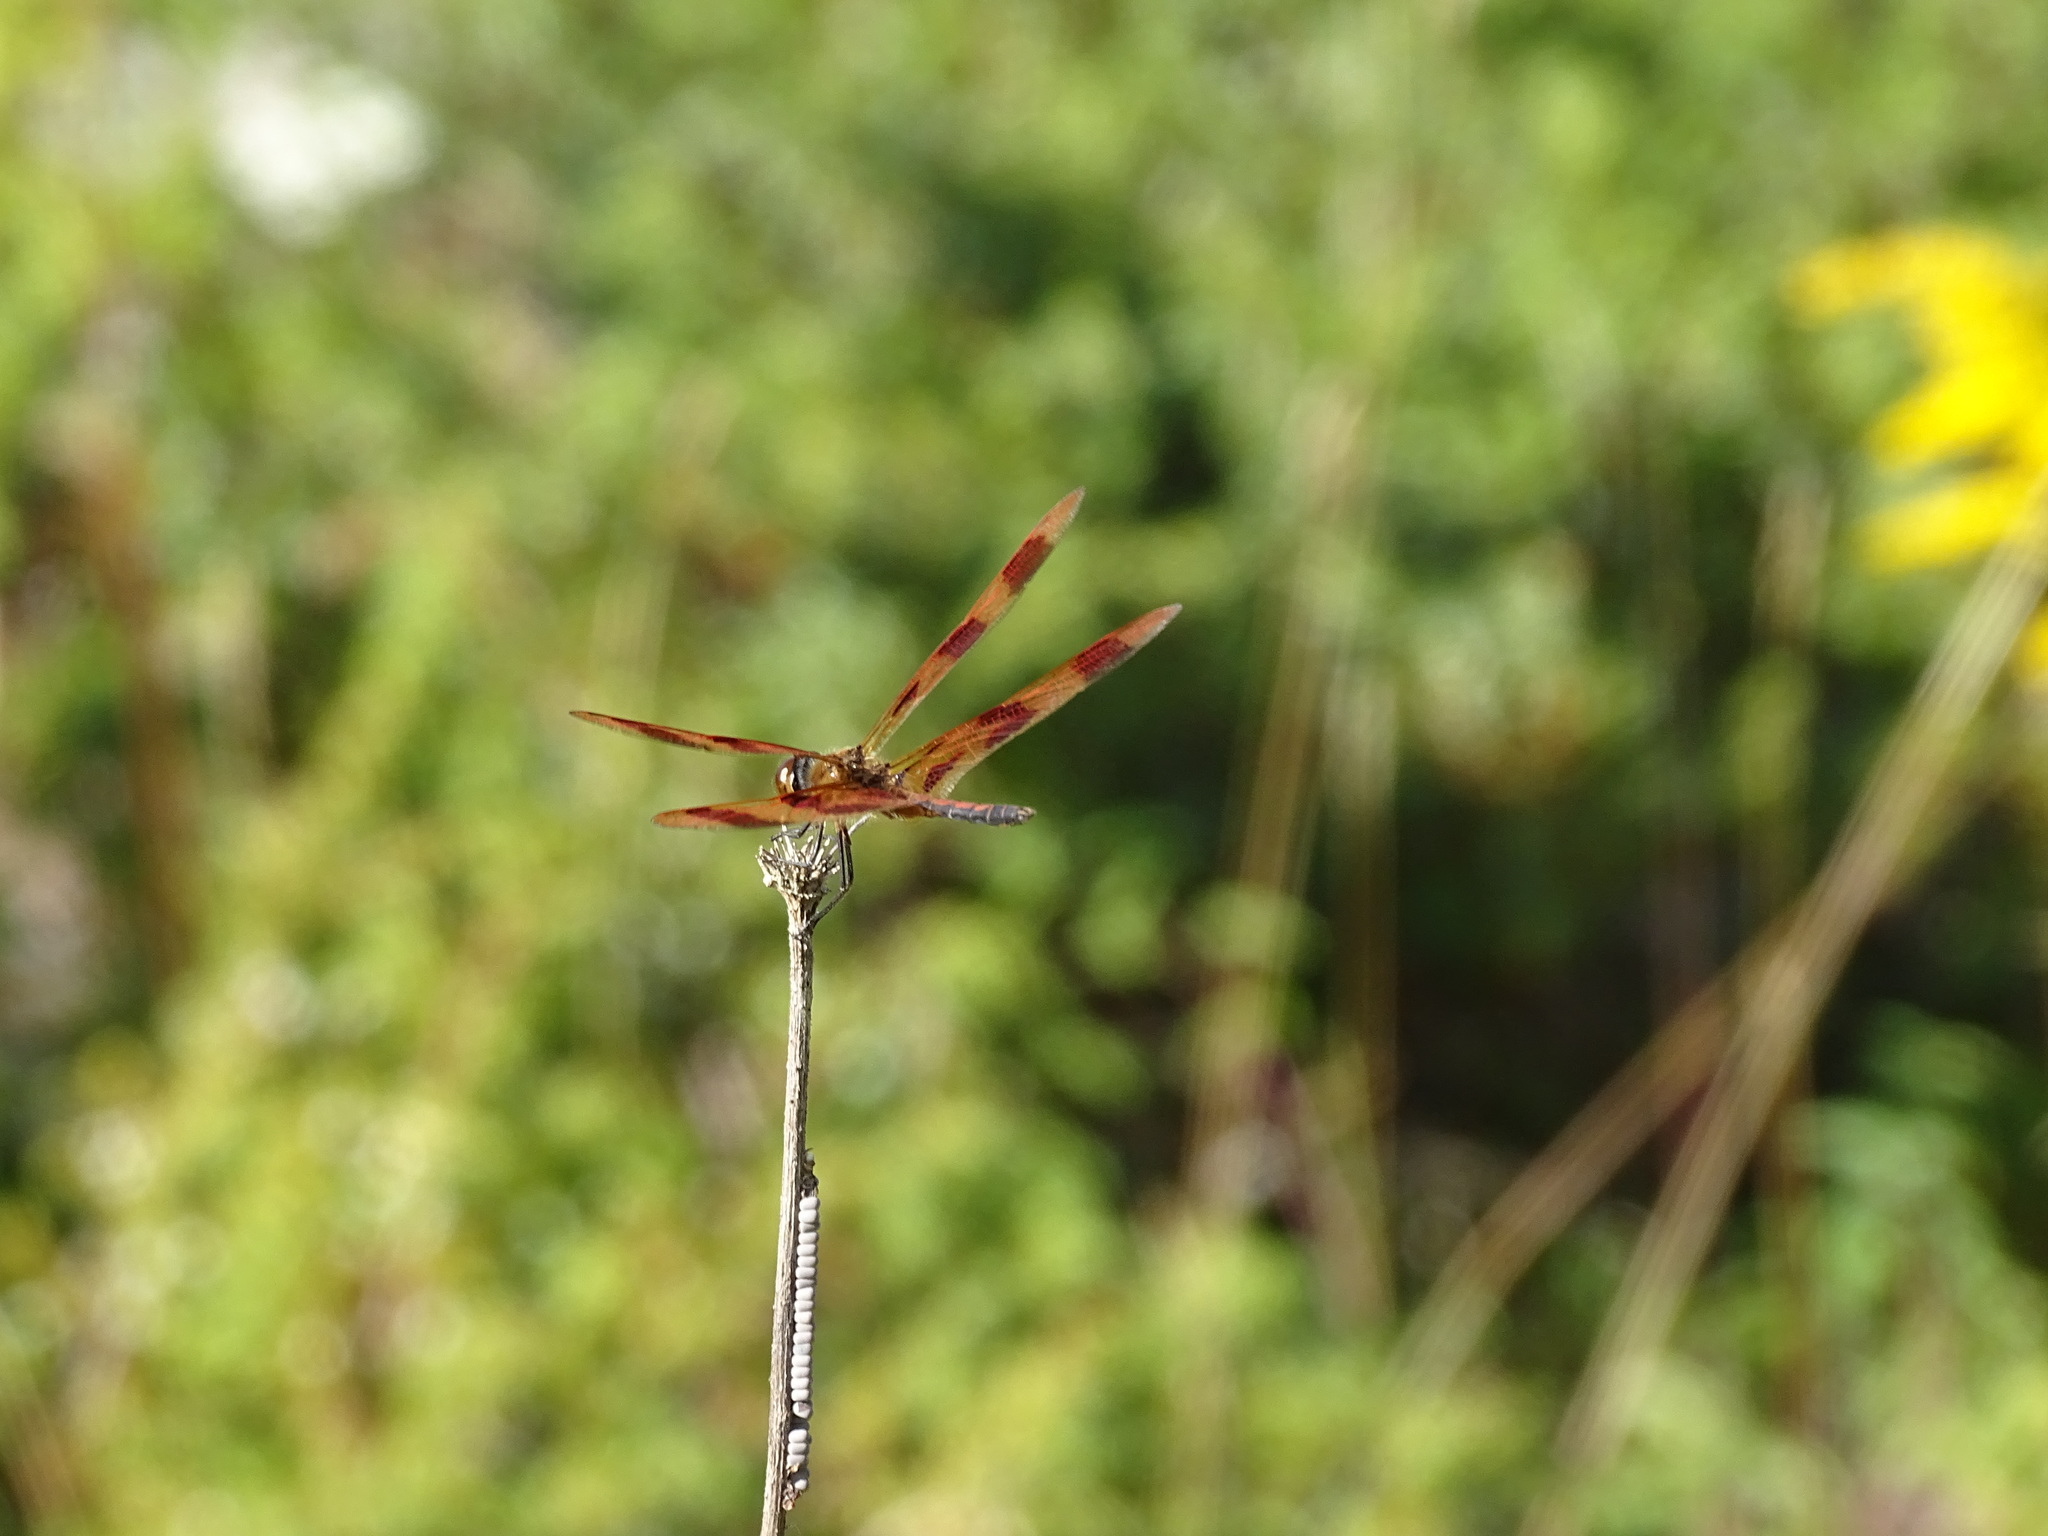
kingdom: Animalia
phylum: Arthropoda
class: Insecta
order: Odonata
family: Libellulidae
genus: Celithemis
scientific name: Celithemis eponina
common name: Halloween pennant
